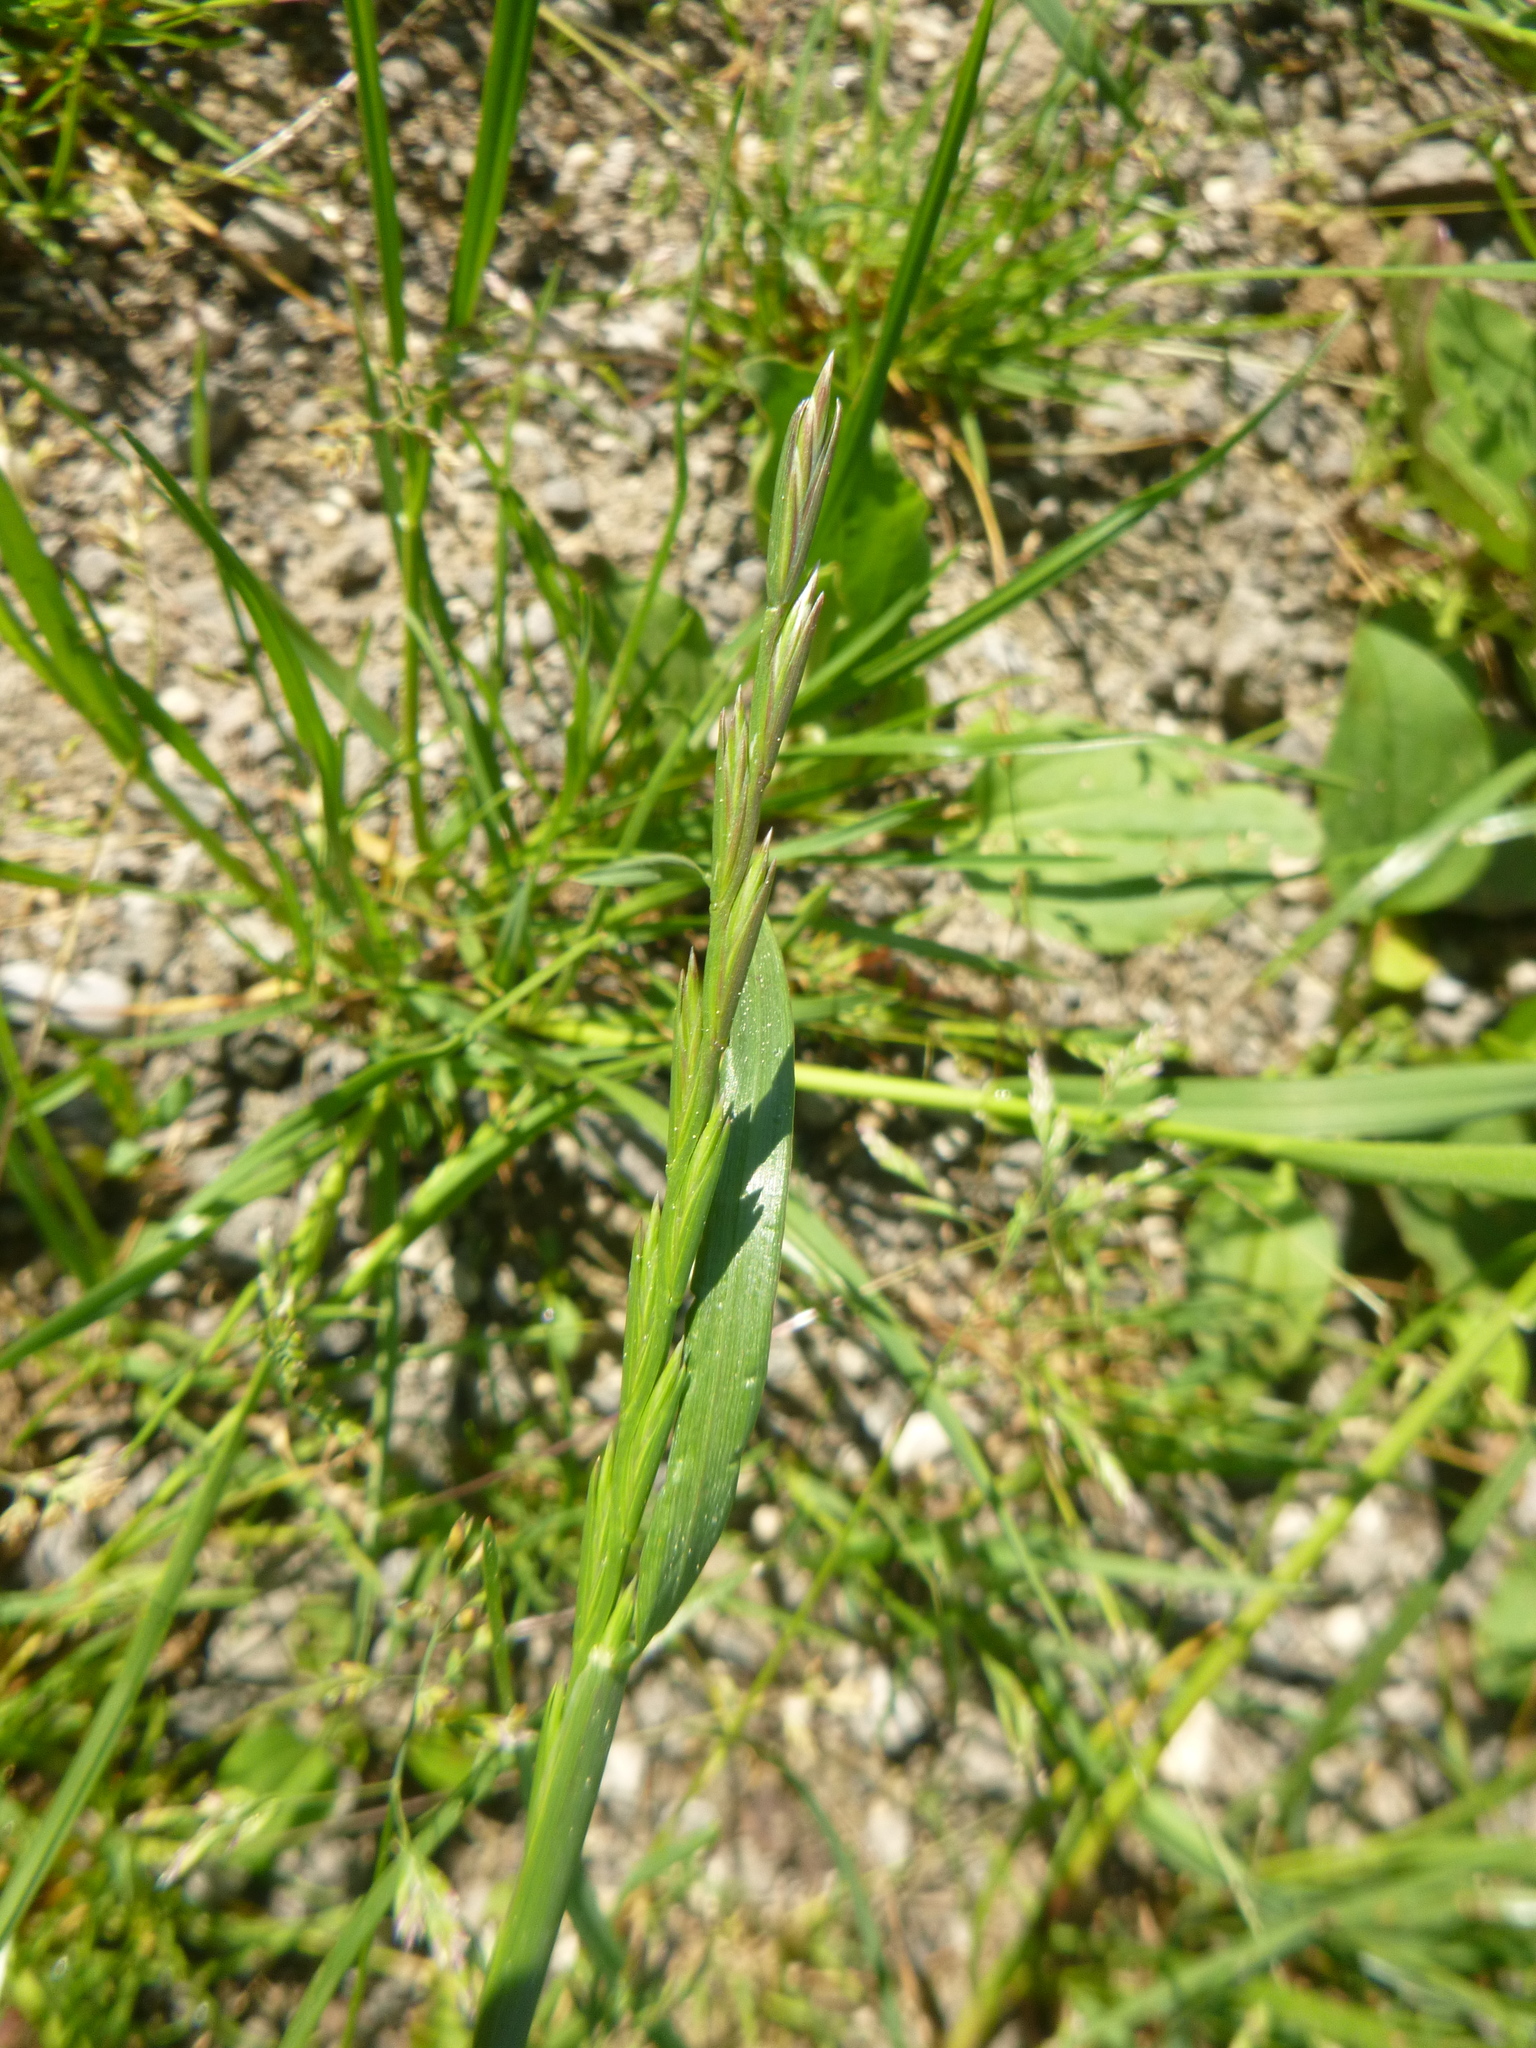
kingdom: Plantae
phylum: Tracheophyta
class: Liliopsida
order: Poales
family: Poaceae
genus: Lolium
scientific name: Lolium perenne
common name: Perennial ryegrass
